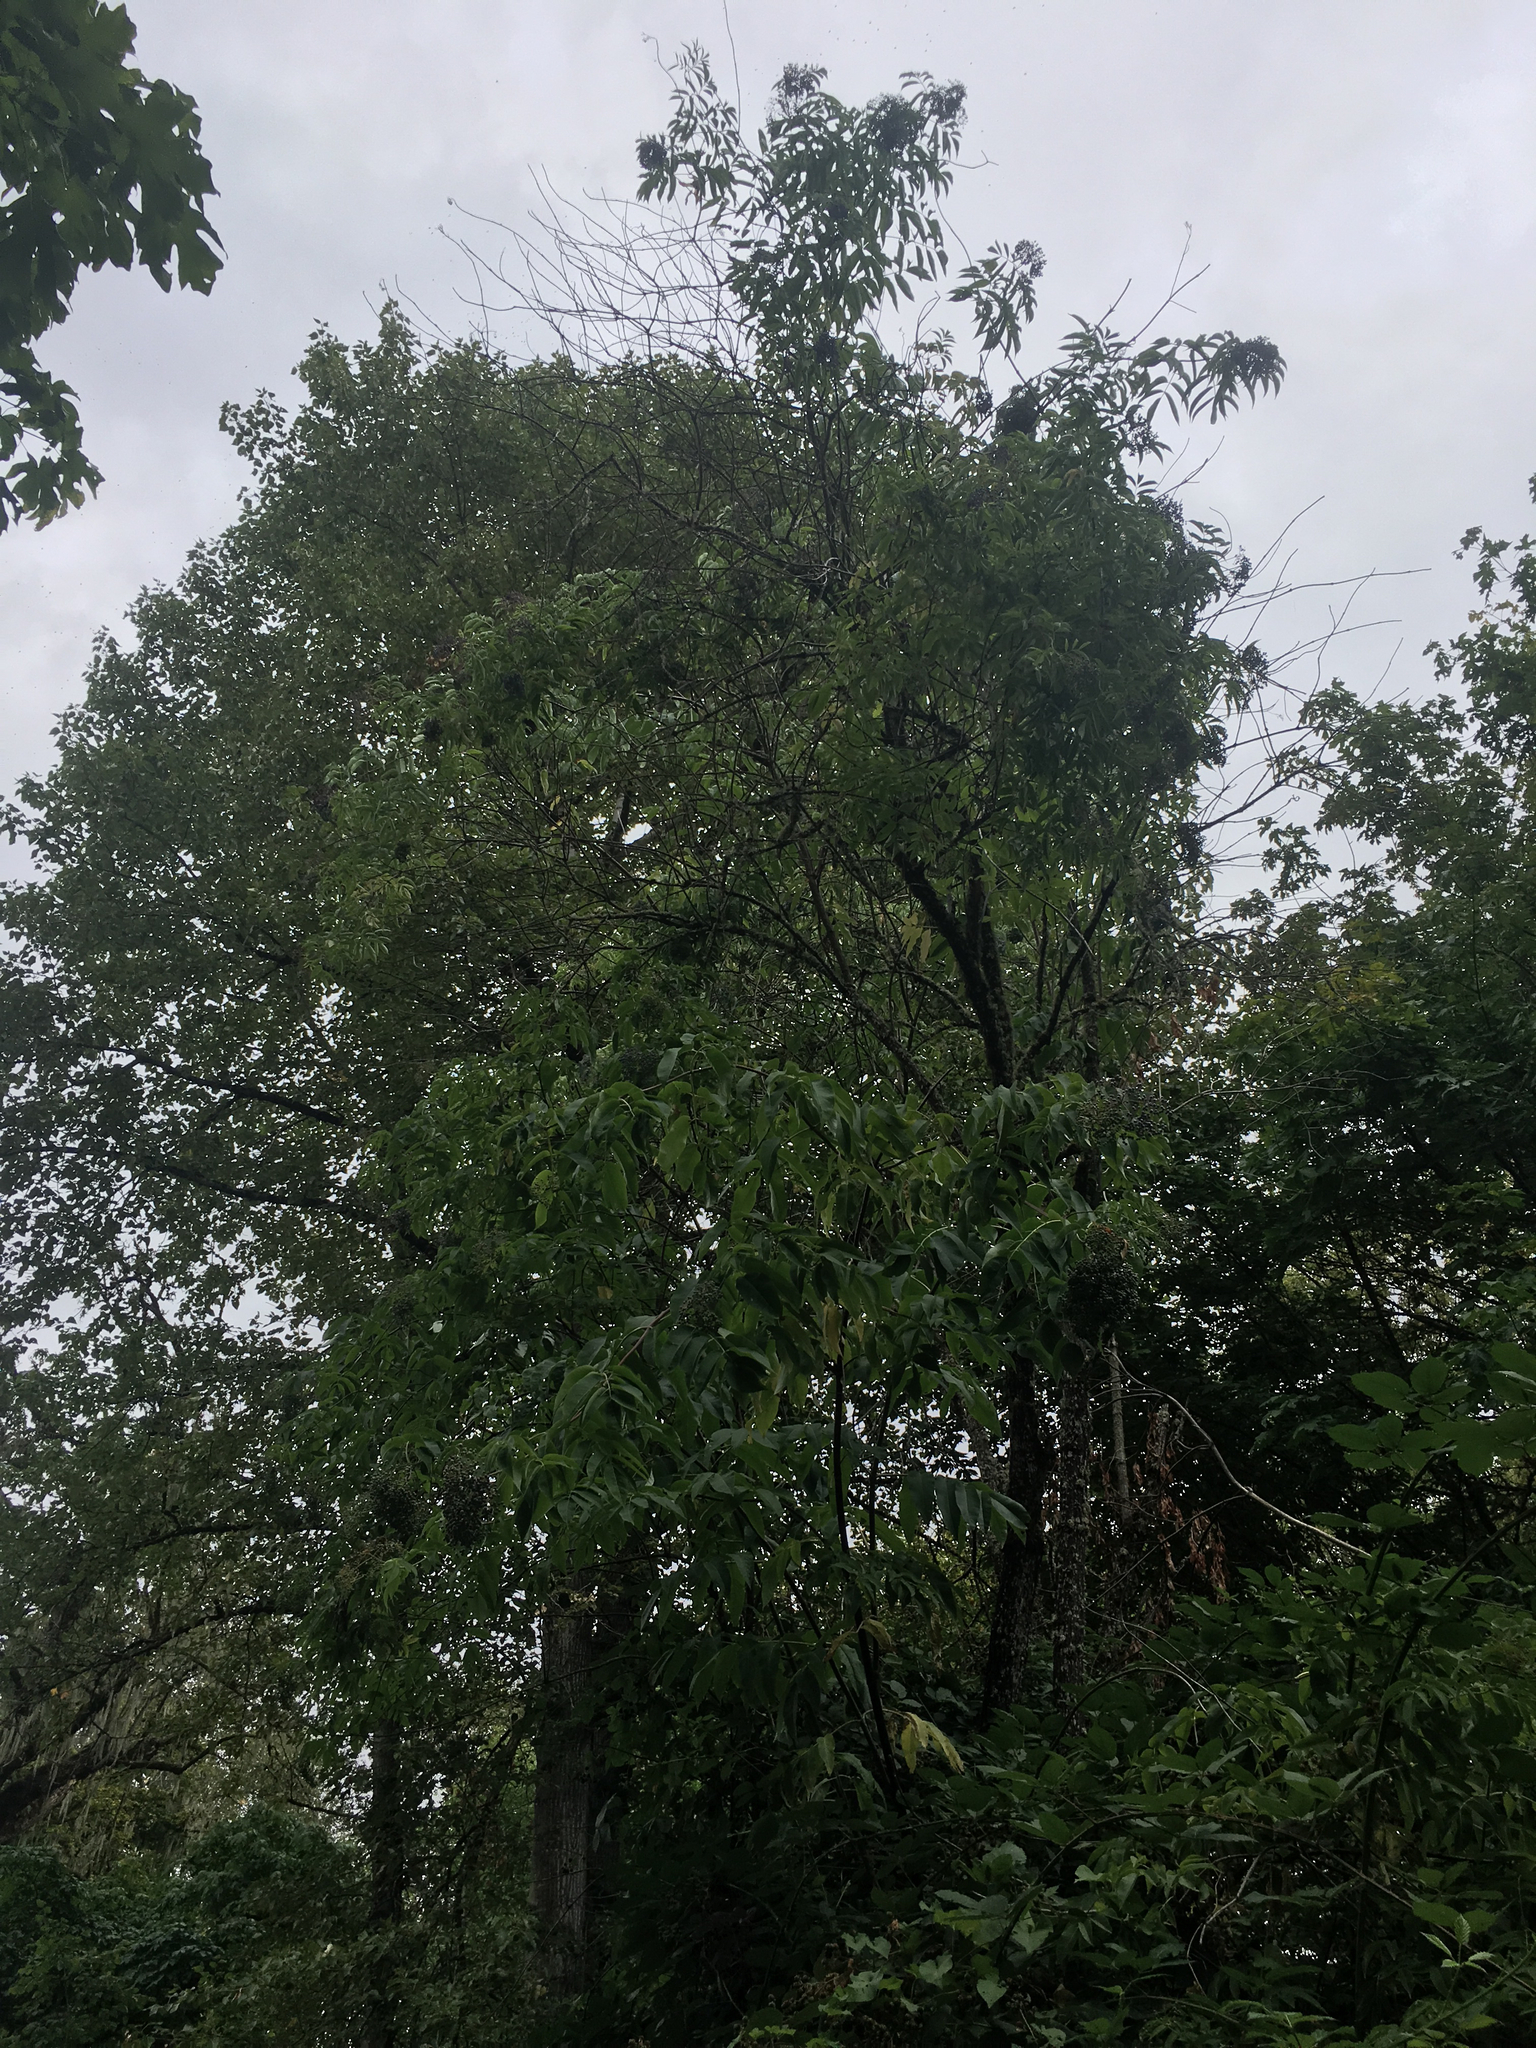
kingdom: Plantae
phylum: Tracheophyta
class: Magnoliopsida
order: Dipsacales
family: Viburnaceae
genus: Sambucus
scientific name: Sambucus cerulea
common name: Blue elder
